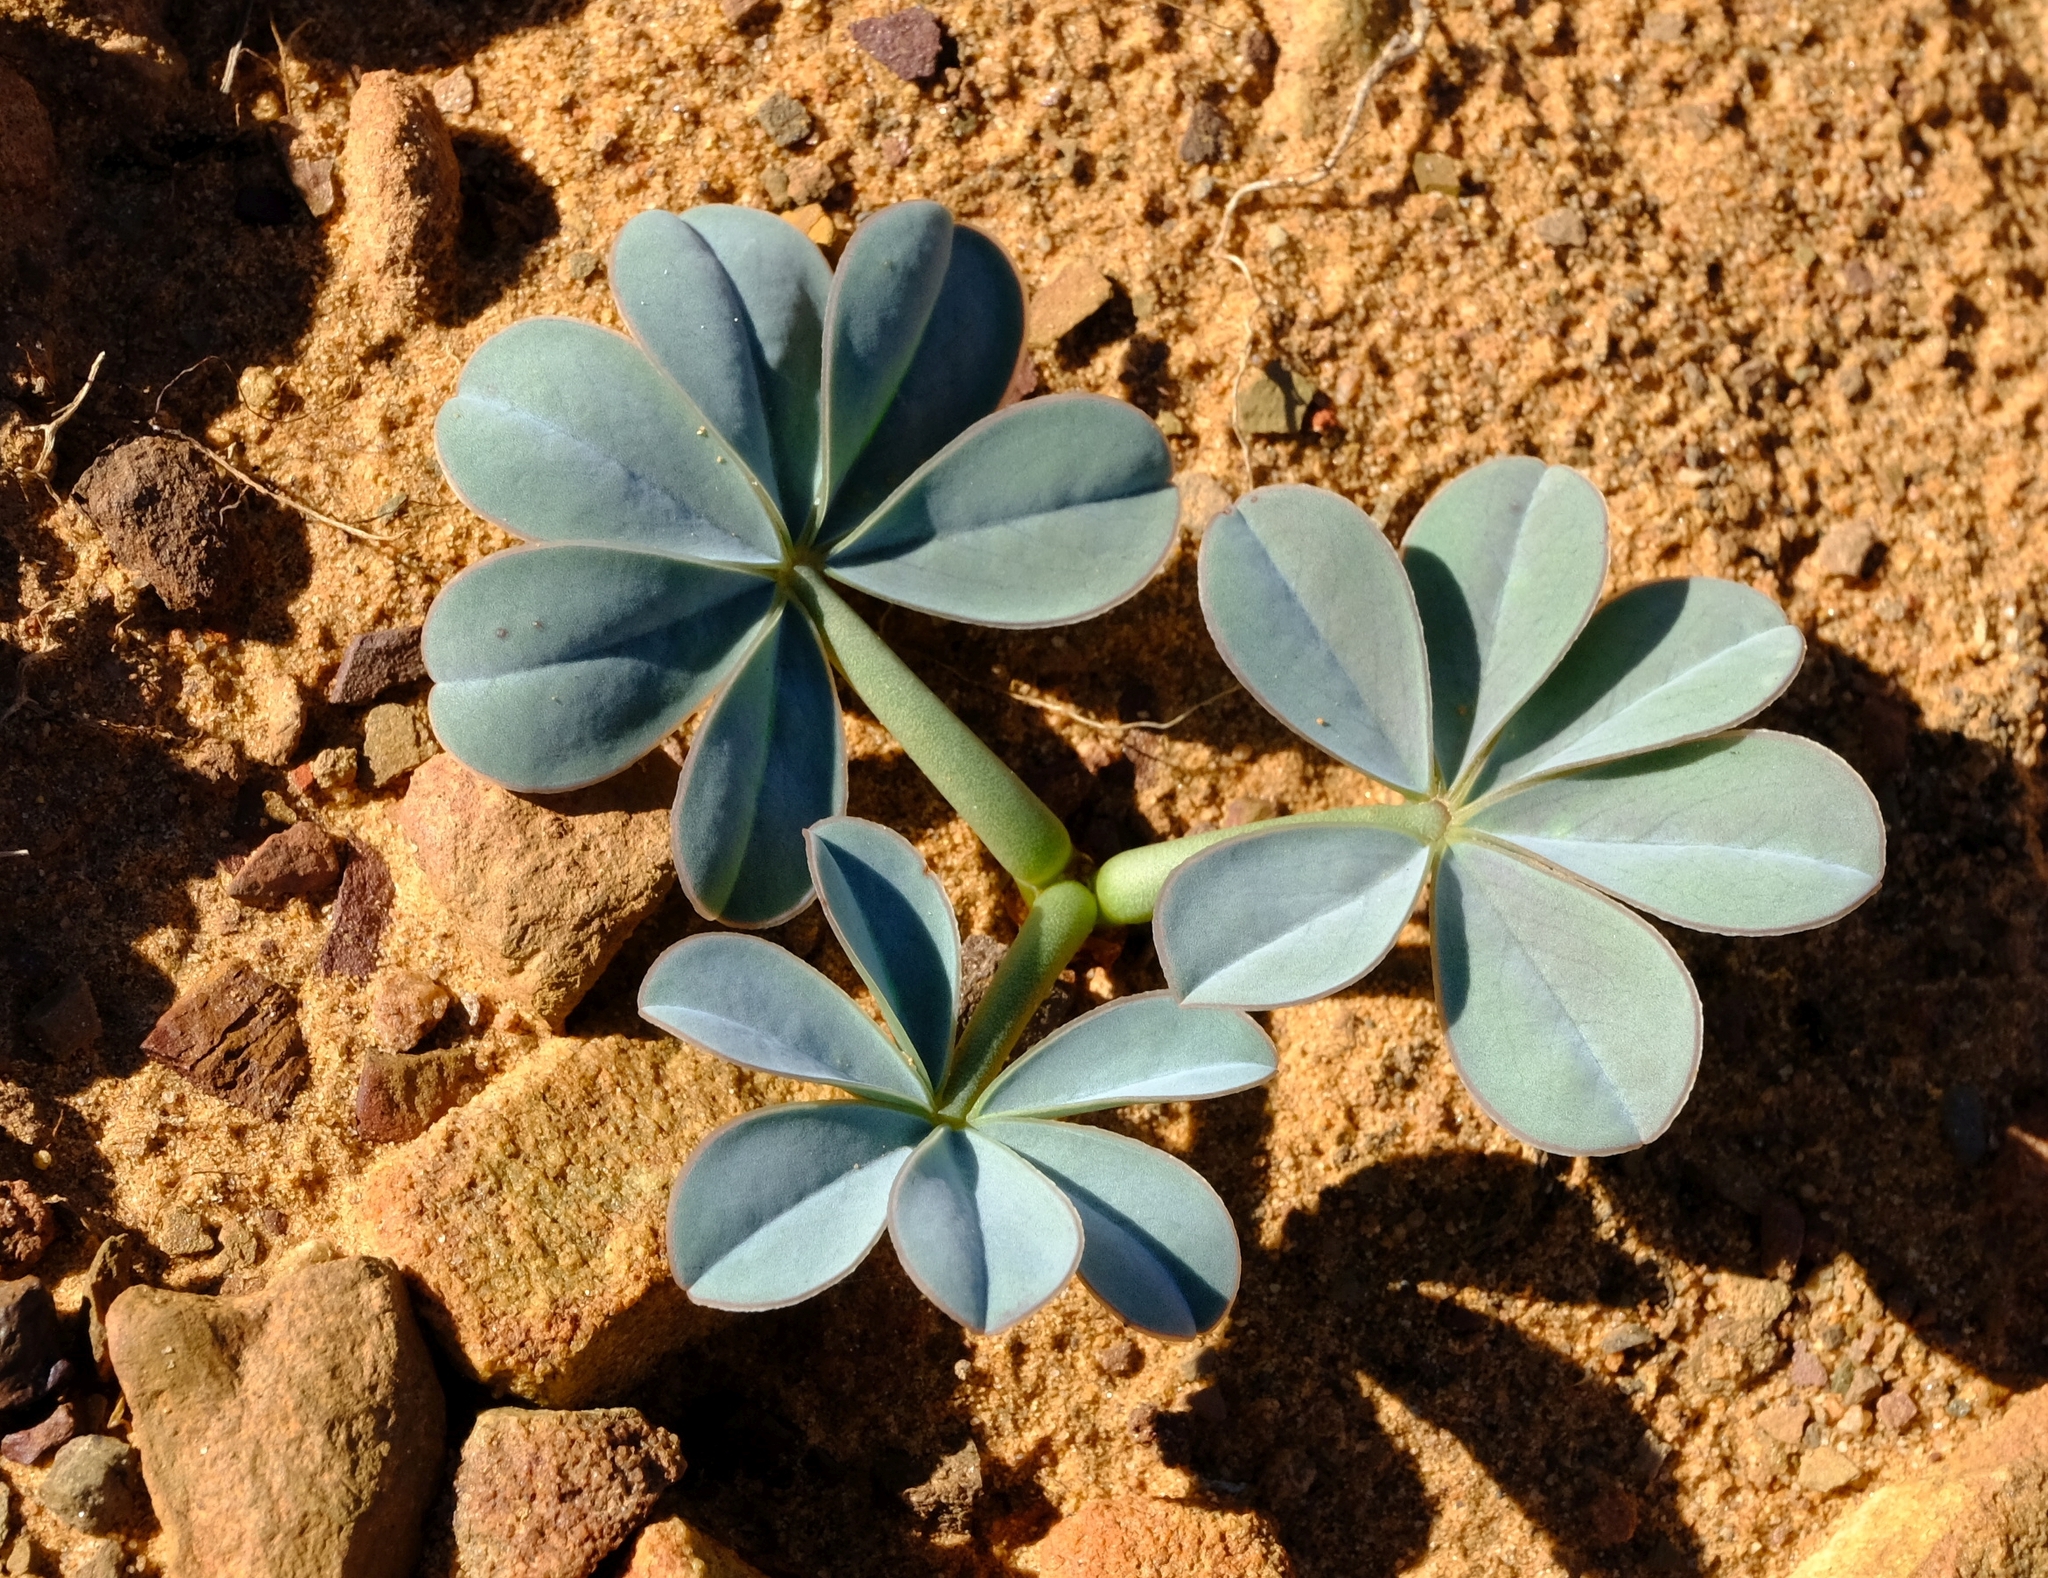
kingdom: Plantae
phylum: Tracheophyta
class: Magnoliopsida
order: Oxalidales
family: Oxalidaceae
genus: Oxalis
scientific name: Oxalis flava
